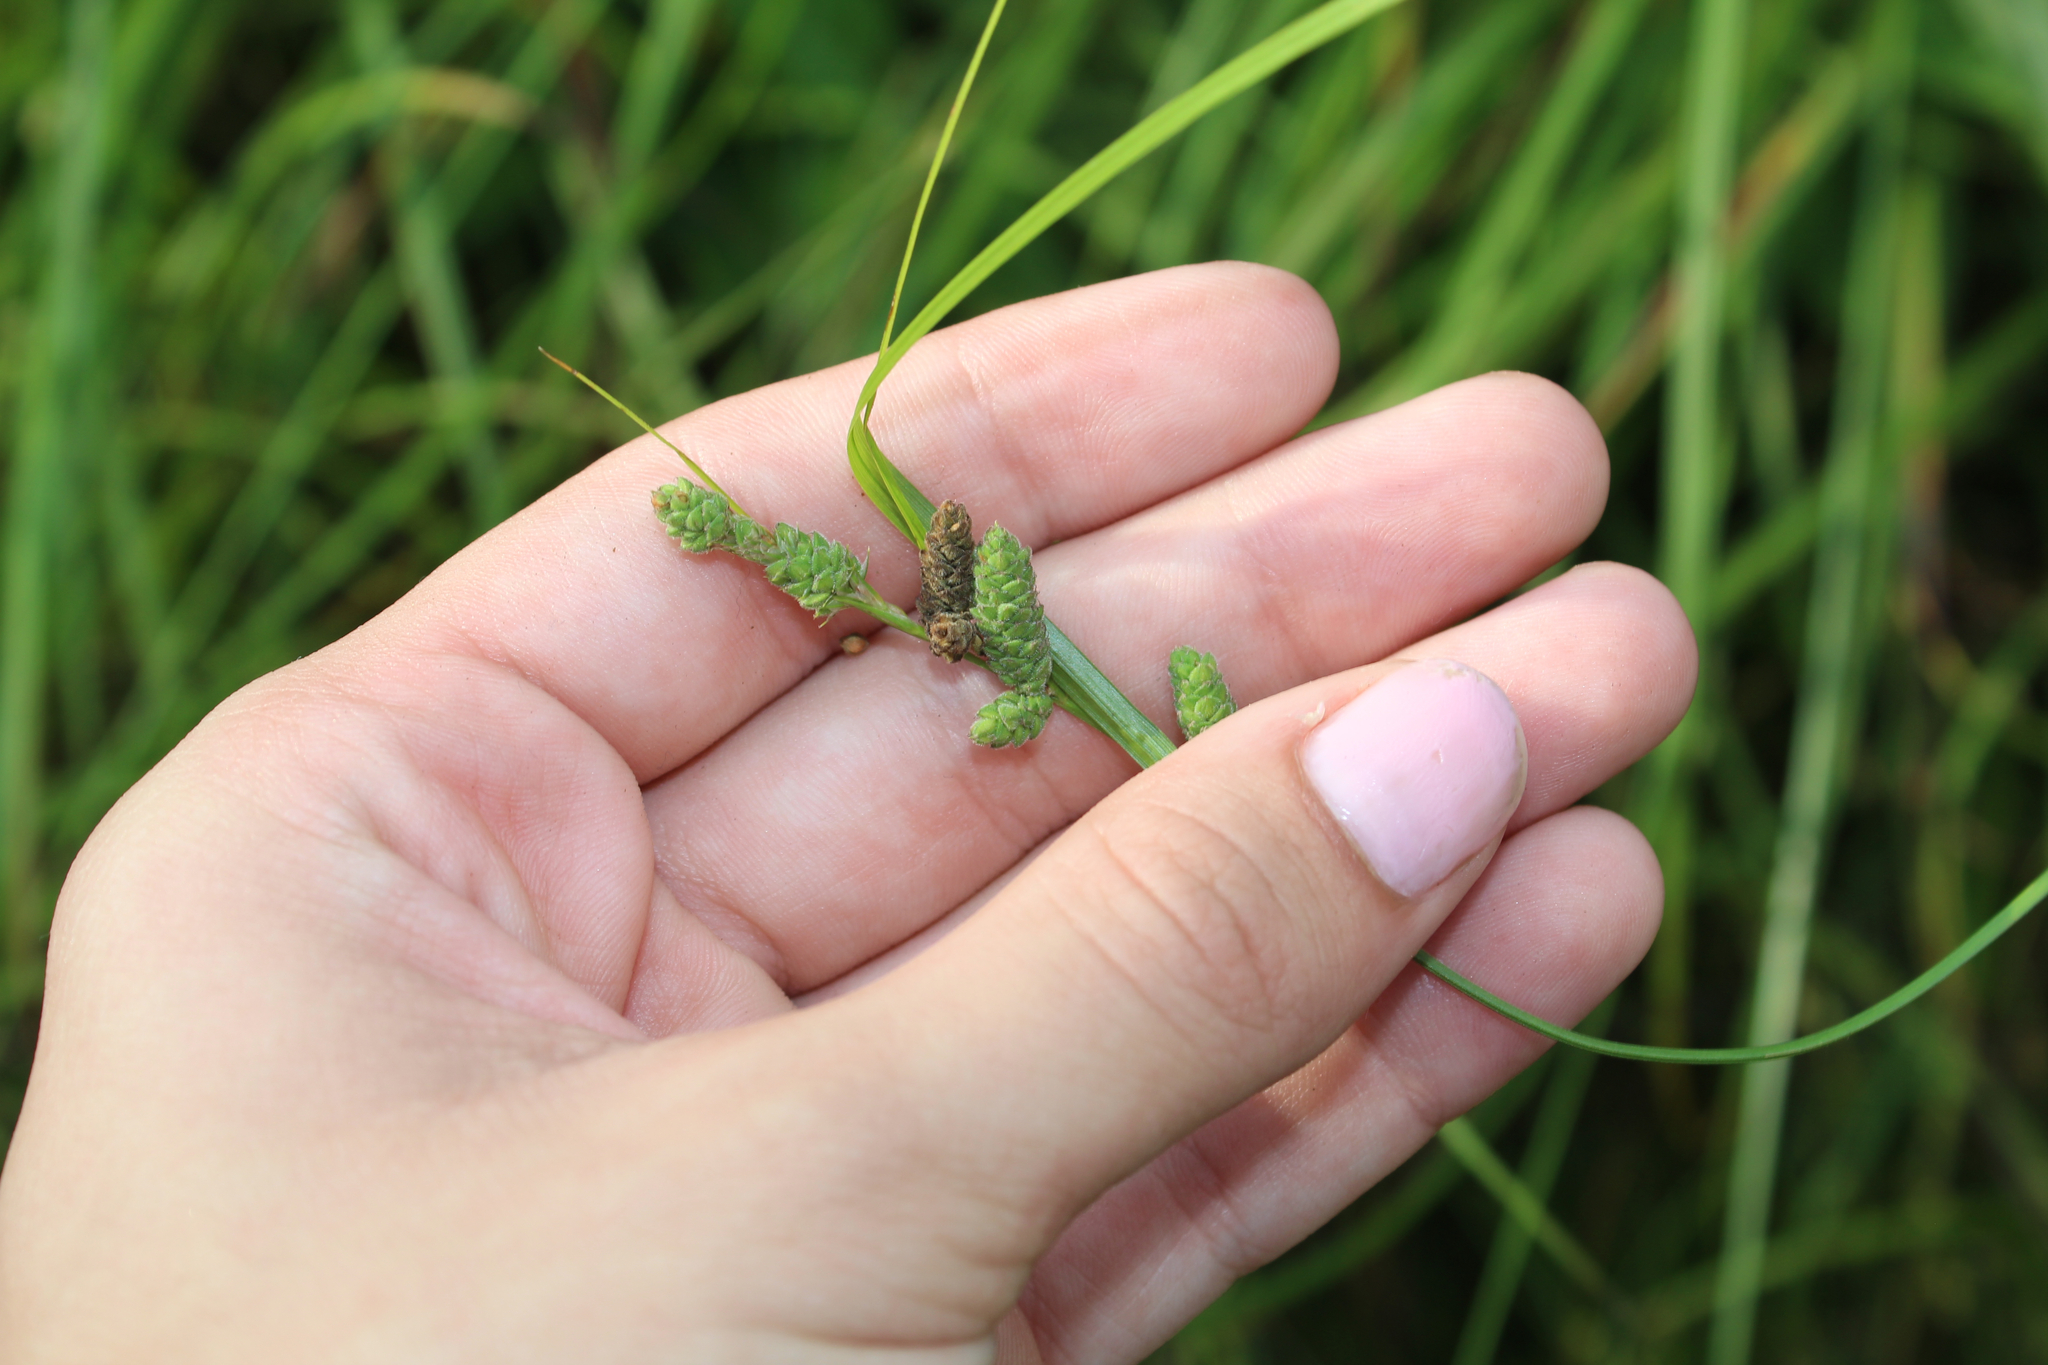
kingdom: Plantae
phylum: Tracheophyta
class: Liliopsida
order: Poales
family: Cyperaceae
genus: Carex
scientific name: Carex swanii
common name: Downy green sedge
